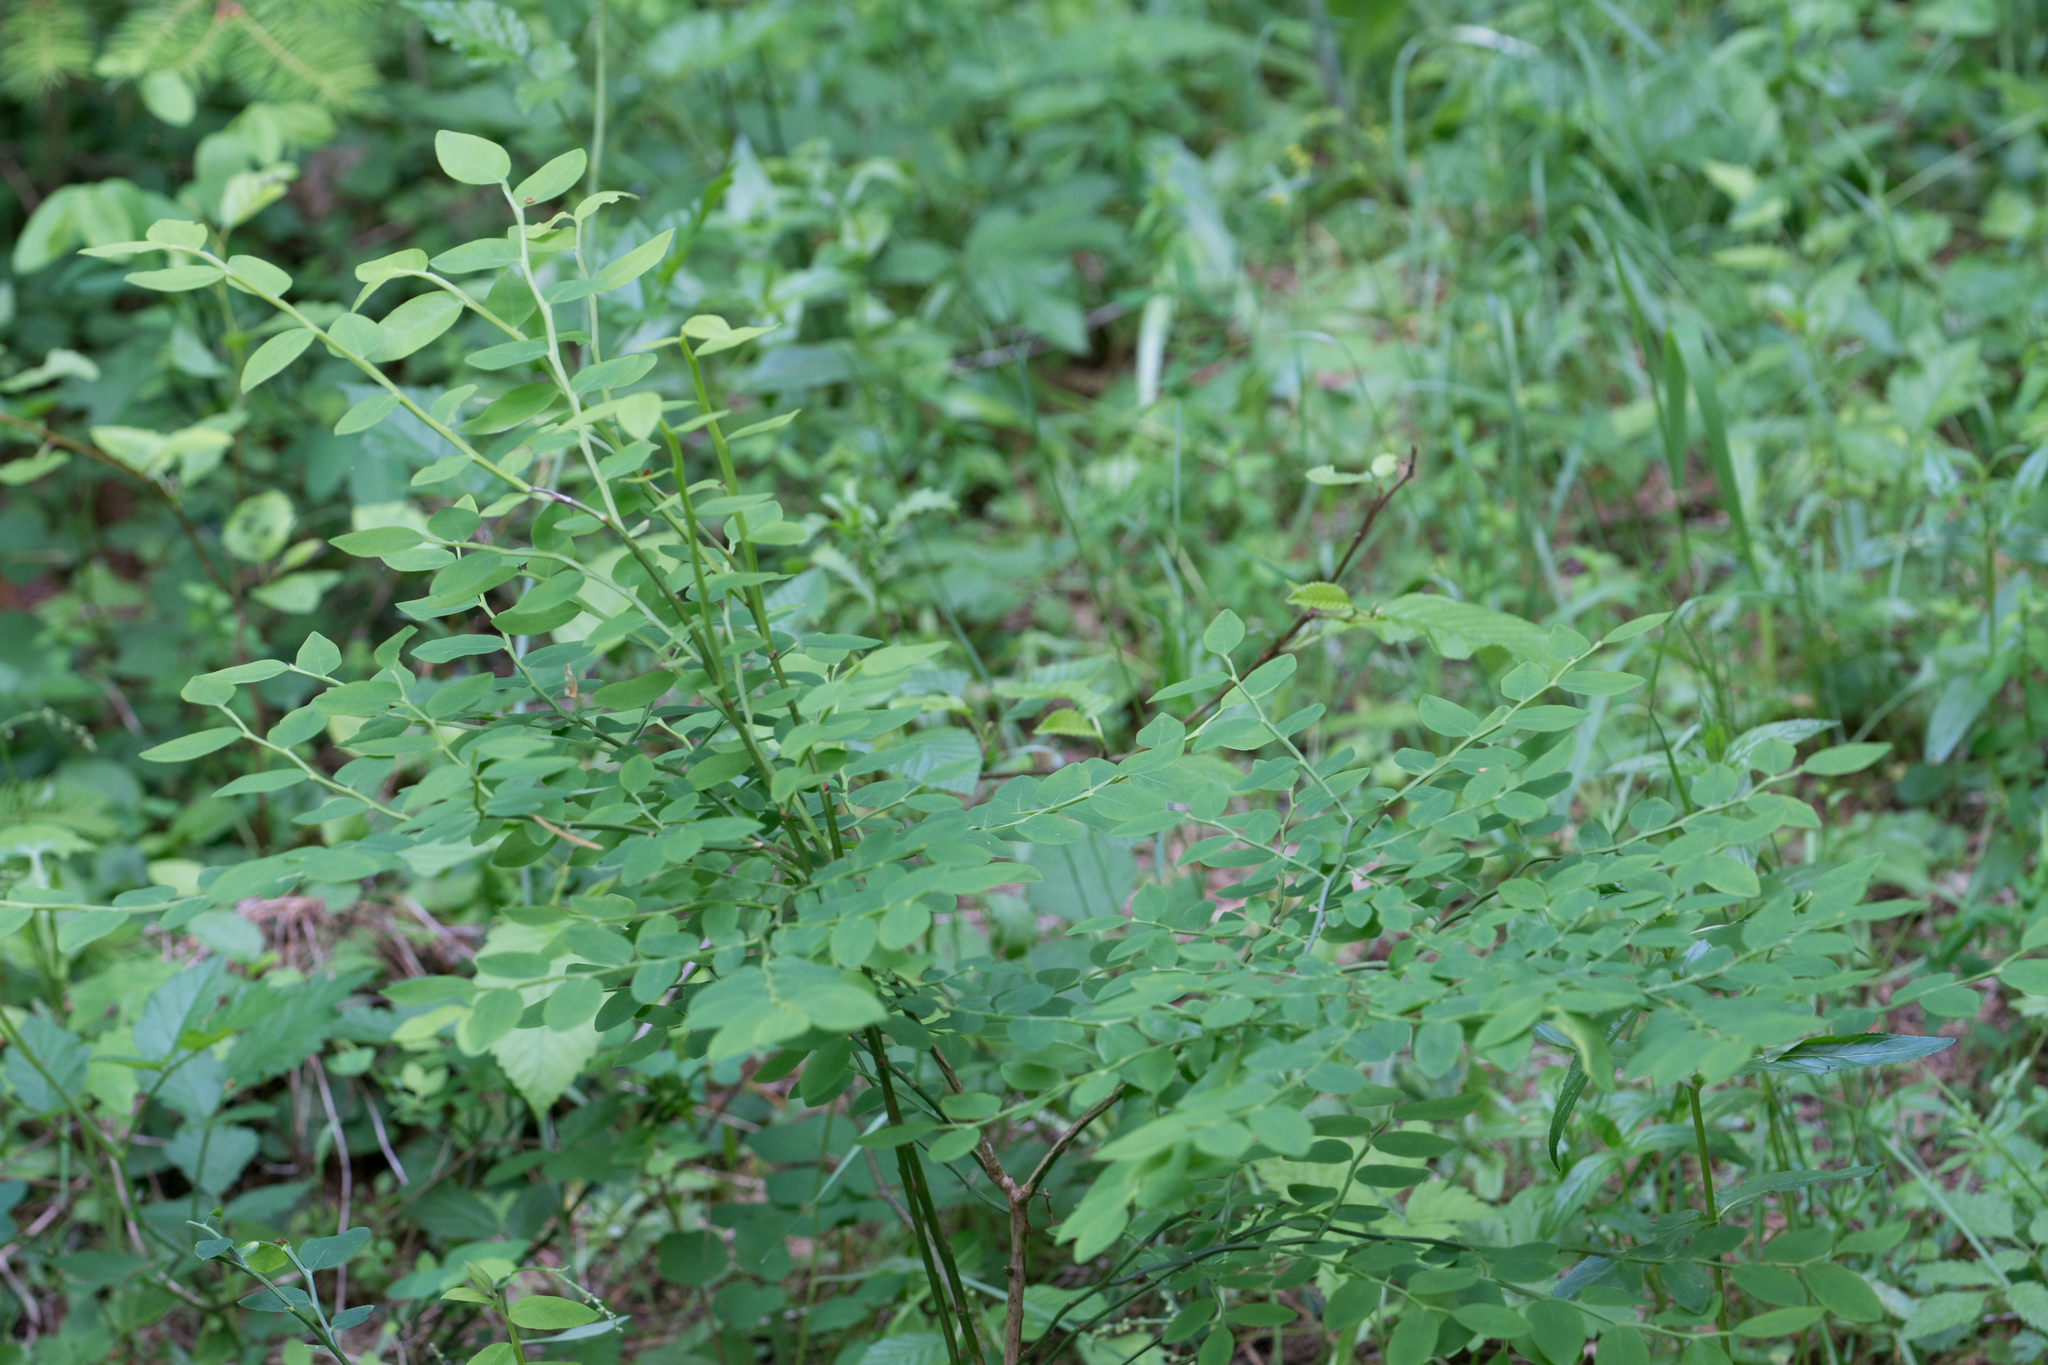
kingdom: Plantae
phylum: Tracheophyta
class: Magnoliopsida
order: Ericales
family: Ericaceae
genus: Vaccinium
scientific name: Vaccinium parvifolium
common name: Red-huckleberry
